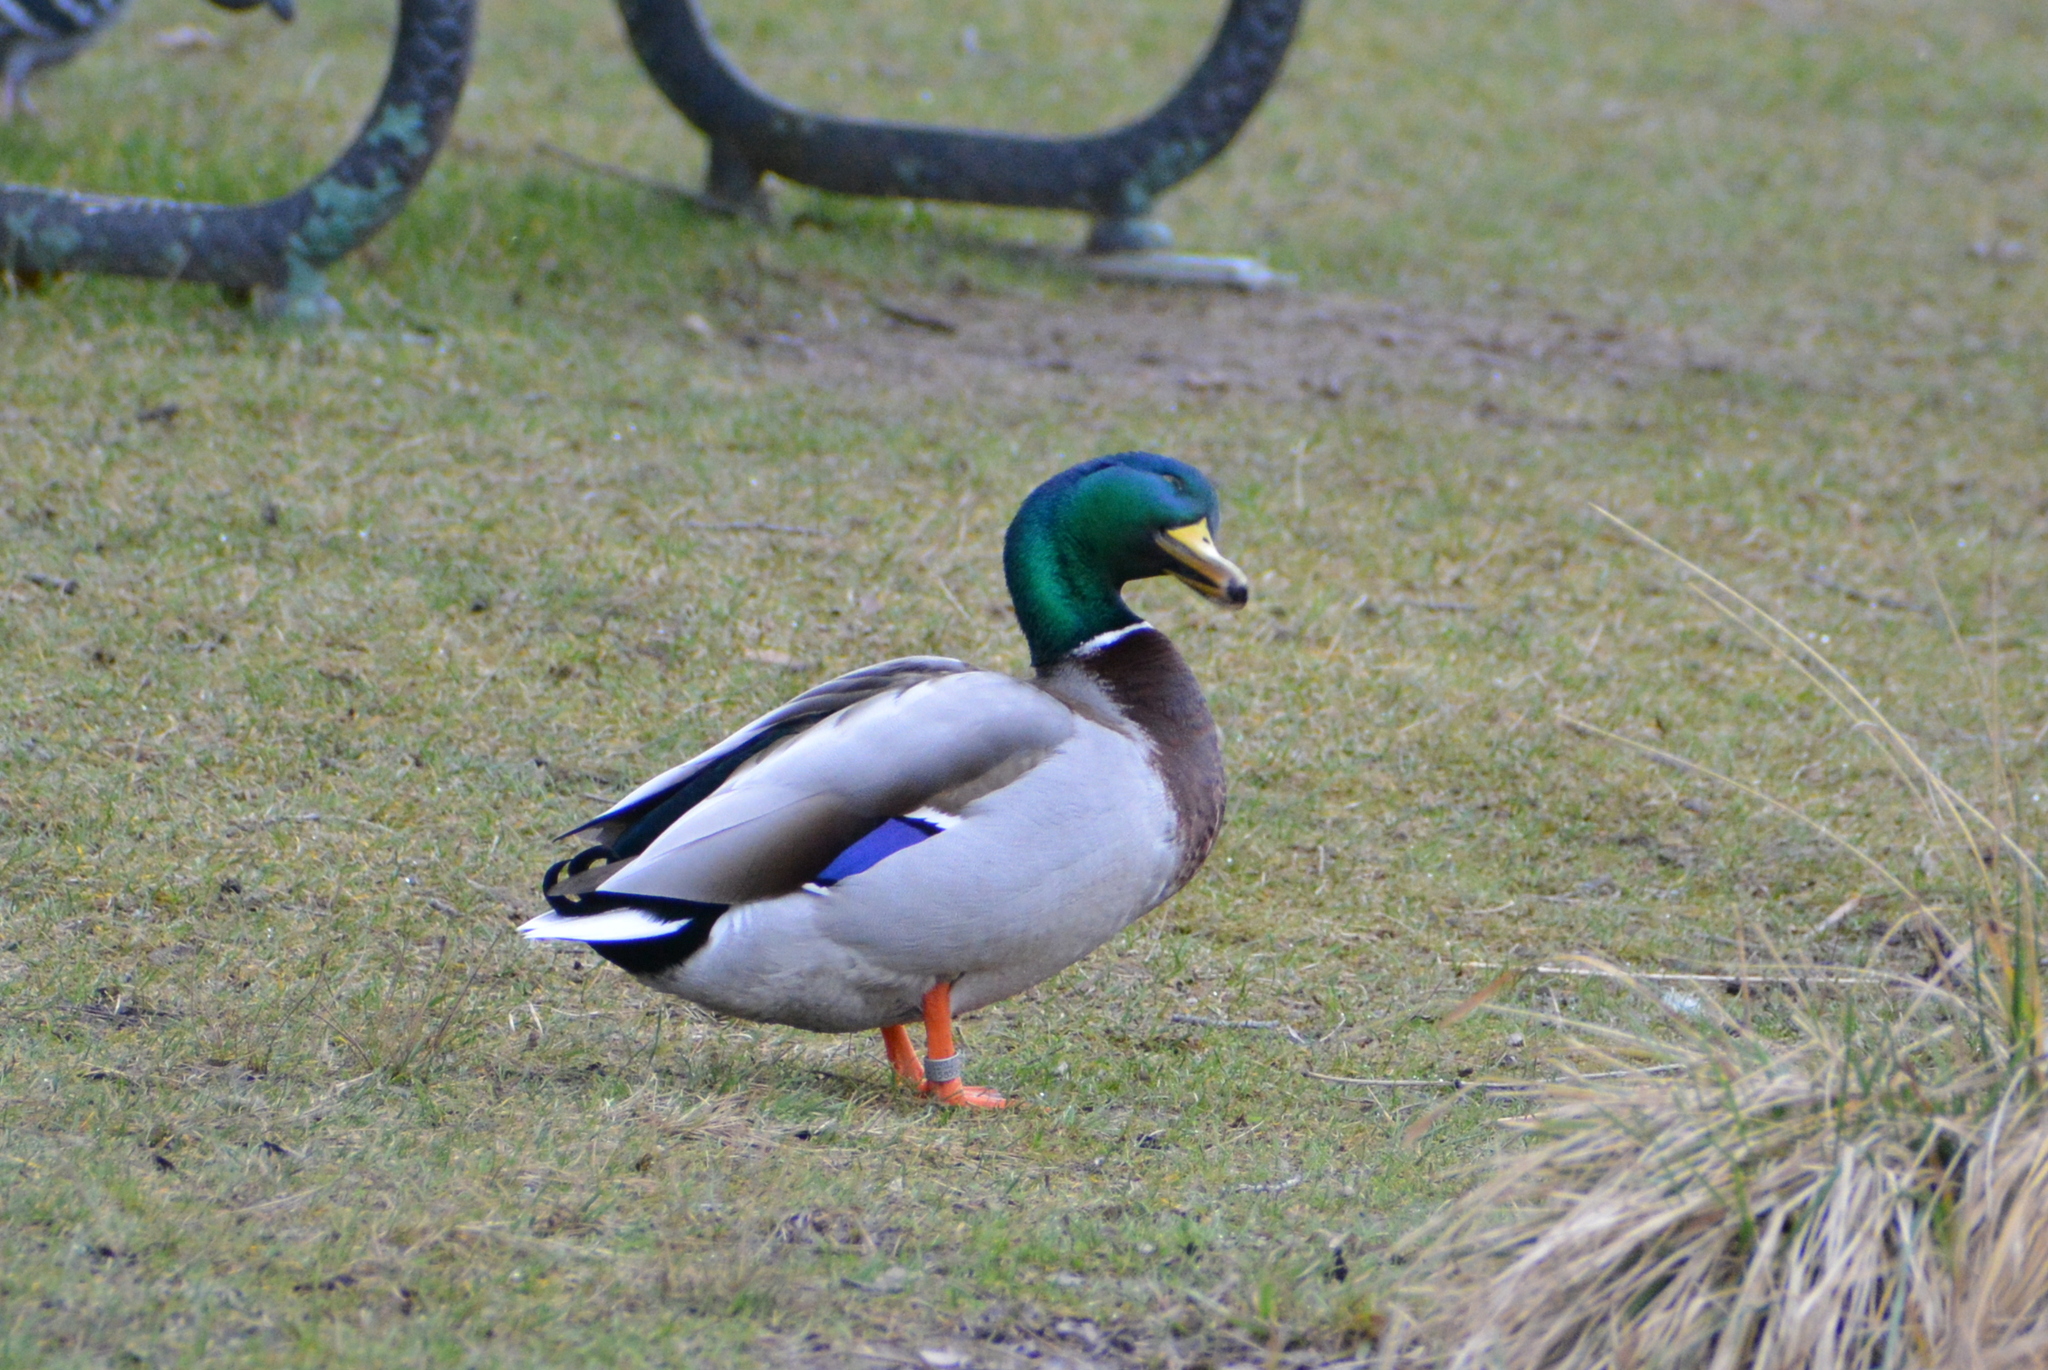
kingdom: Animalia
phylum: Chordata
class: Aves
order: Anseriformes
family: Anatidae
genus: Anas
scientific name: Anas platyrhynchos
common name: Mallard
